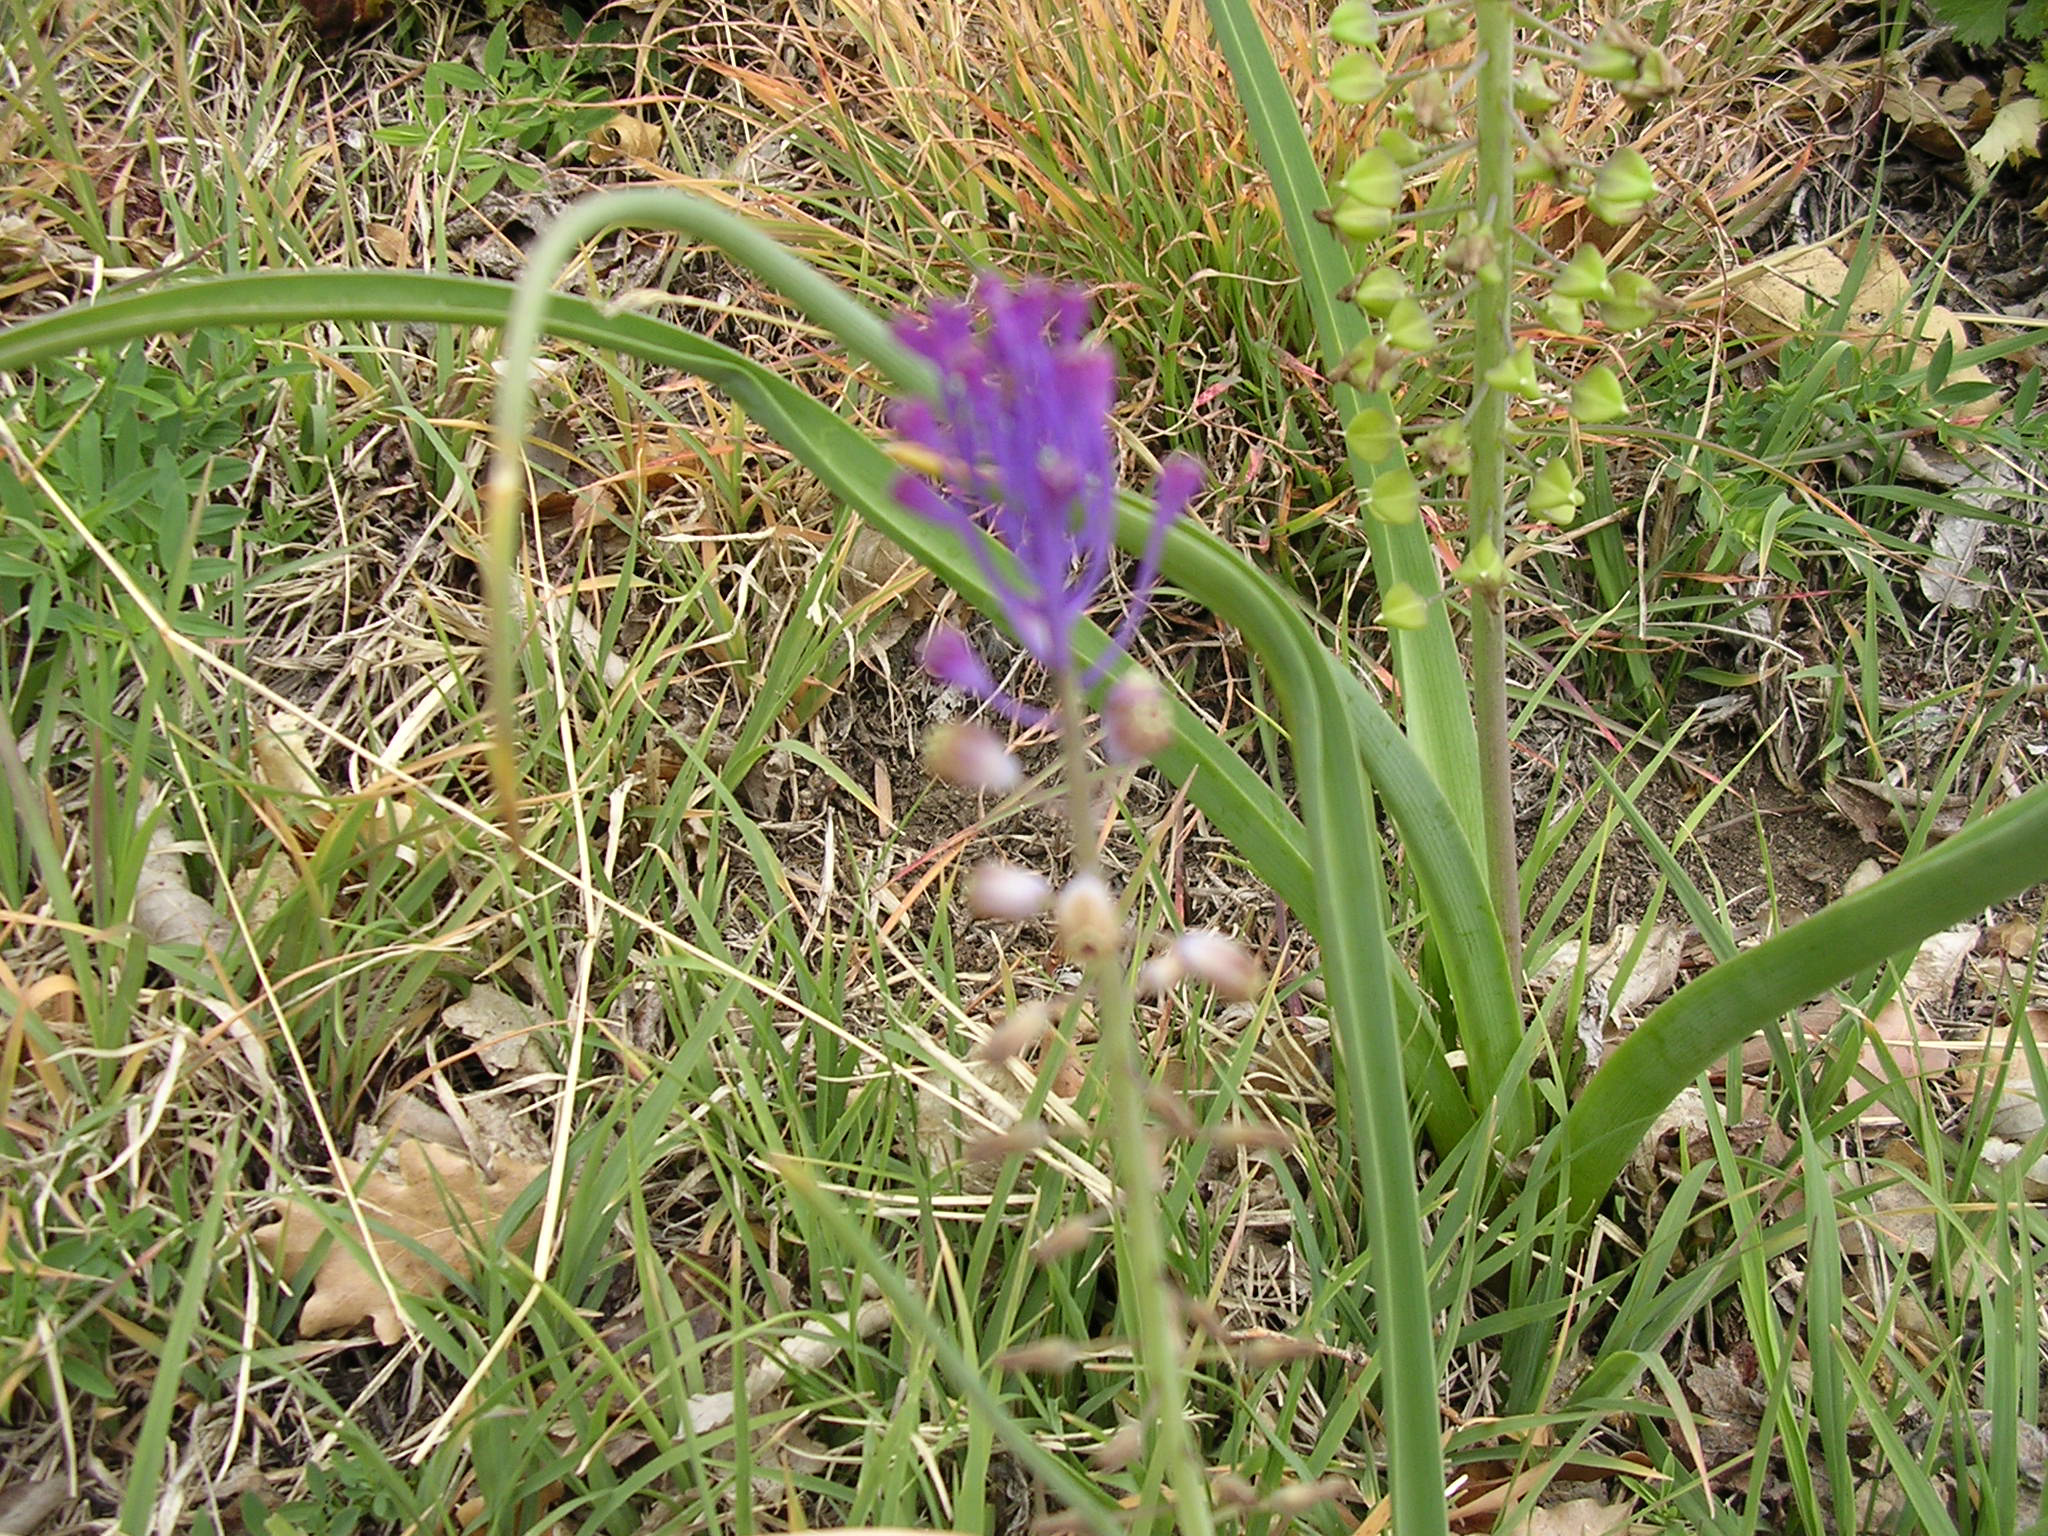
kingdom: Plantae
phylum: Tracheophyta
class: Liliopsida
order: Asparagales
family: Asparagaceae
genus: Muscari
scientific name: Muscari comosum
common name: Tassel hyacinth
